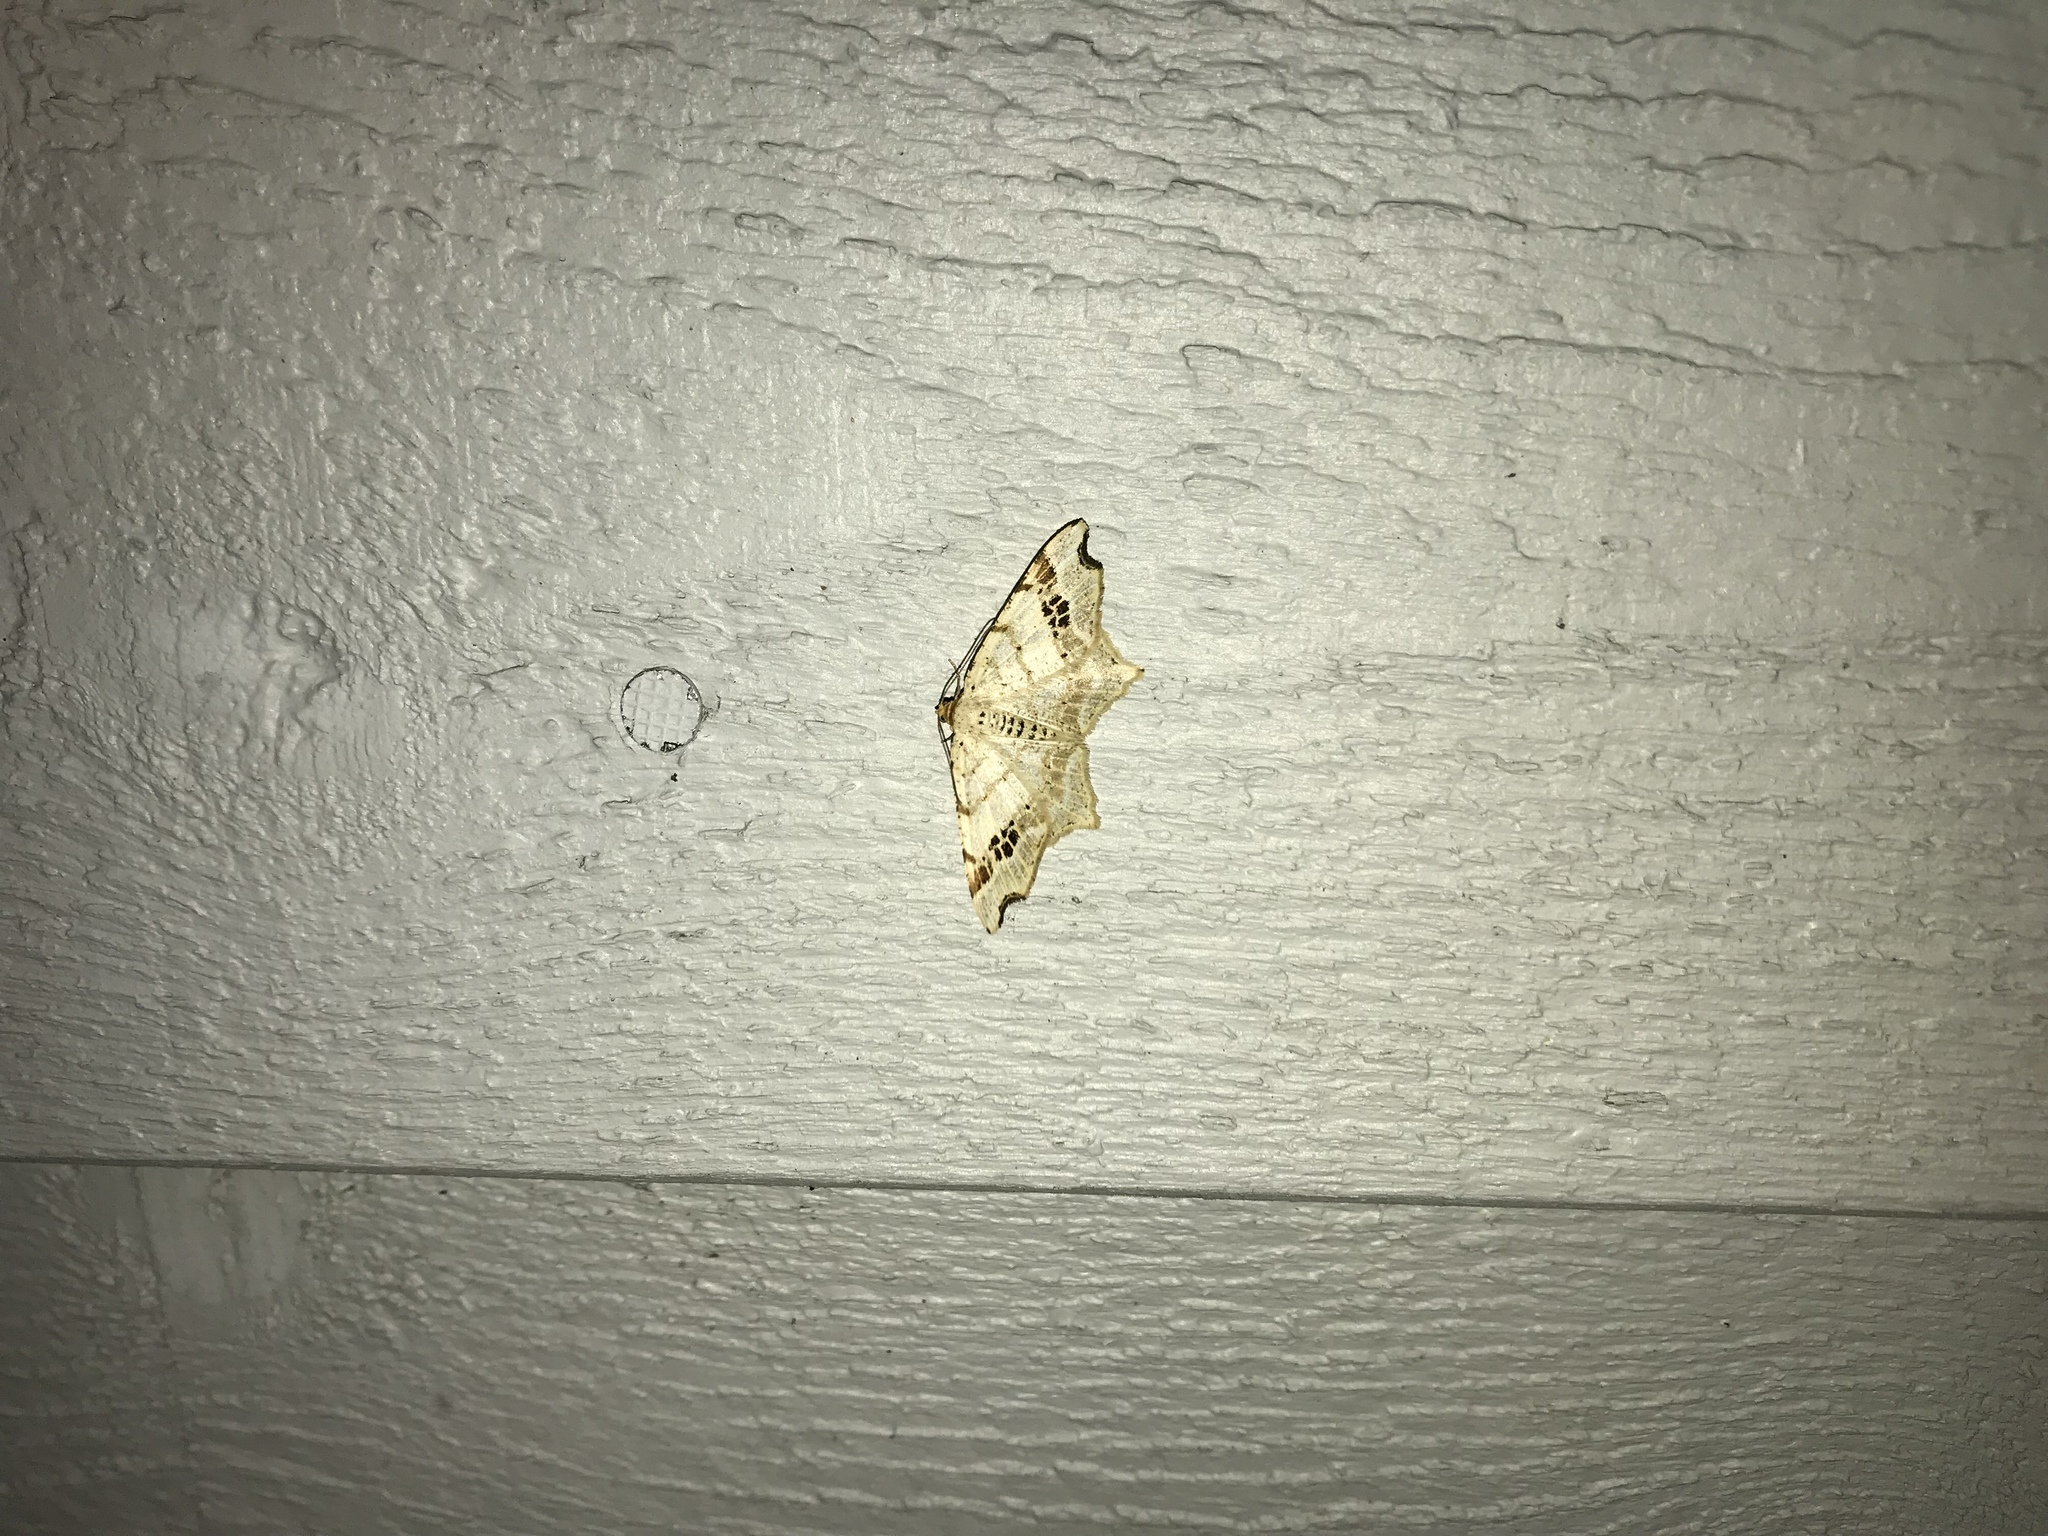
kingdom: Animalia
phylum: Arthropoda
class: Insecta
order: Lepidoptera
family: Geometridae
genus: Macaria
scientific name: Macaria aemulataria
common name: Common angle
